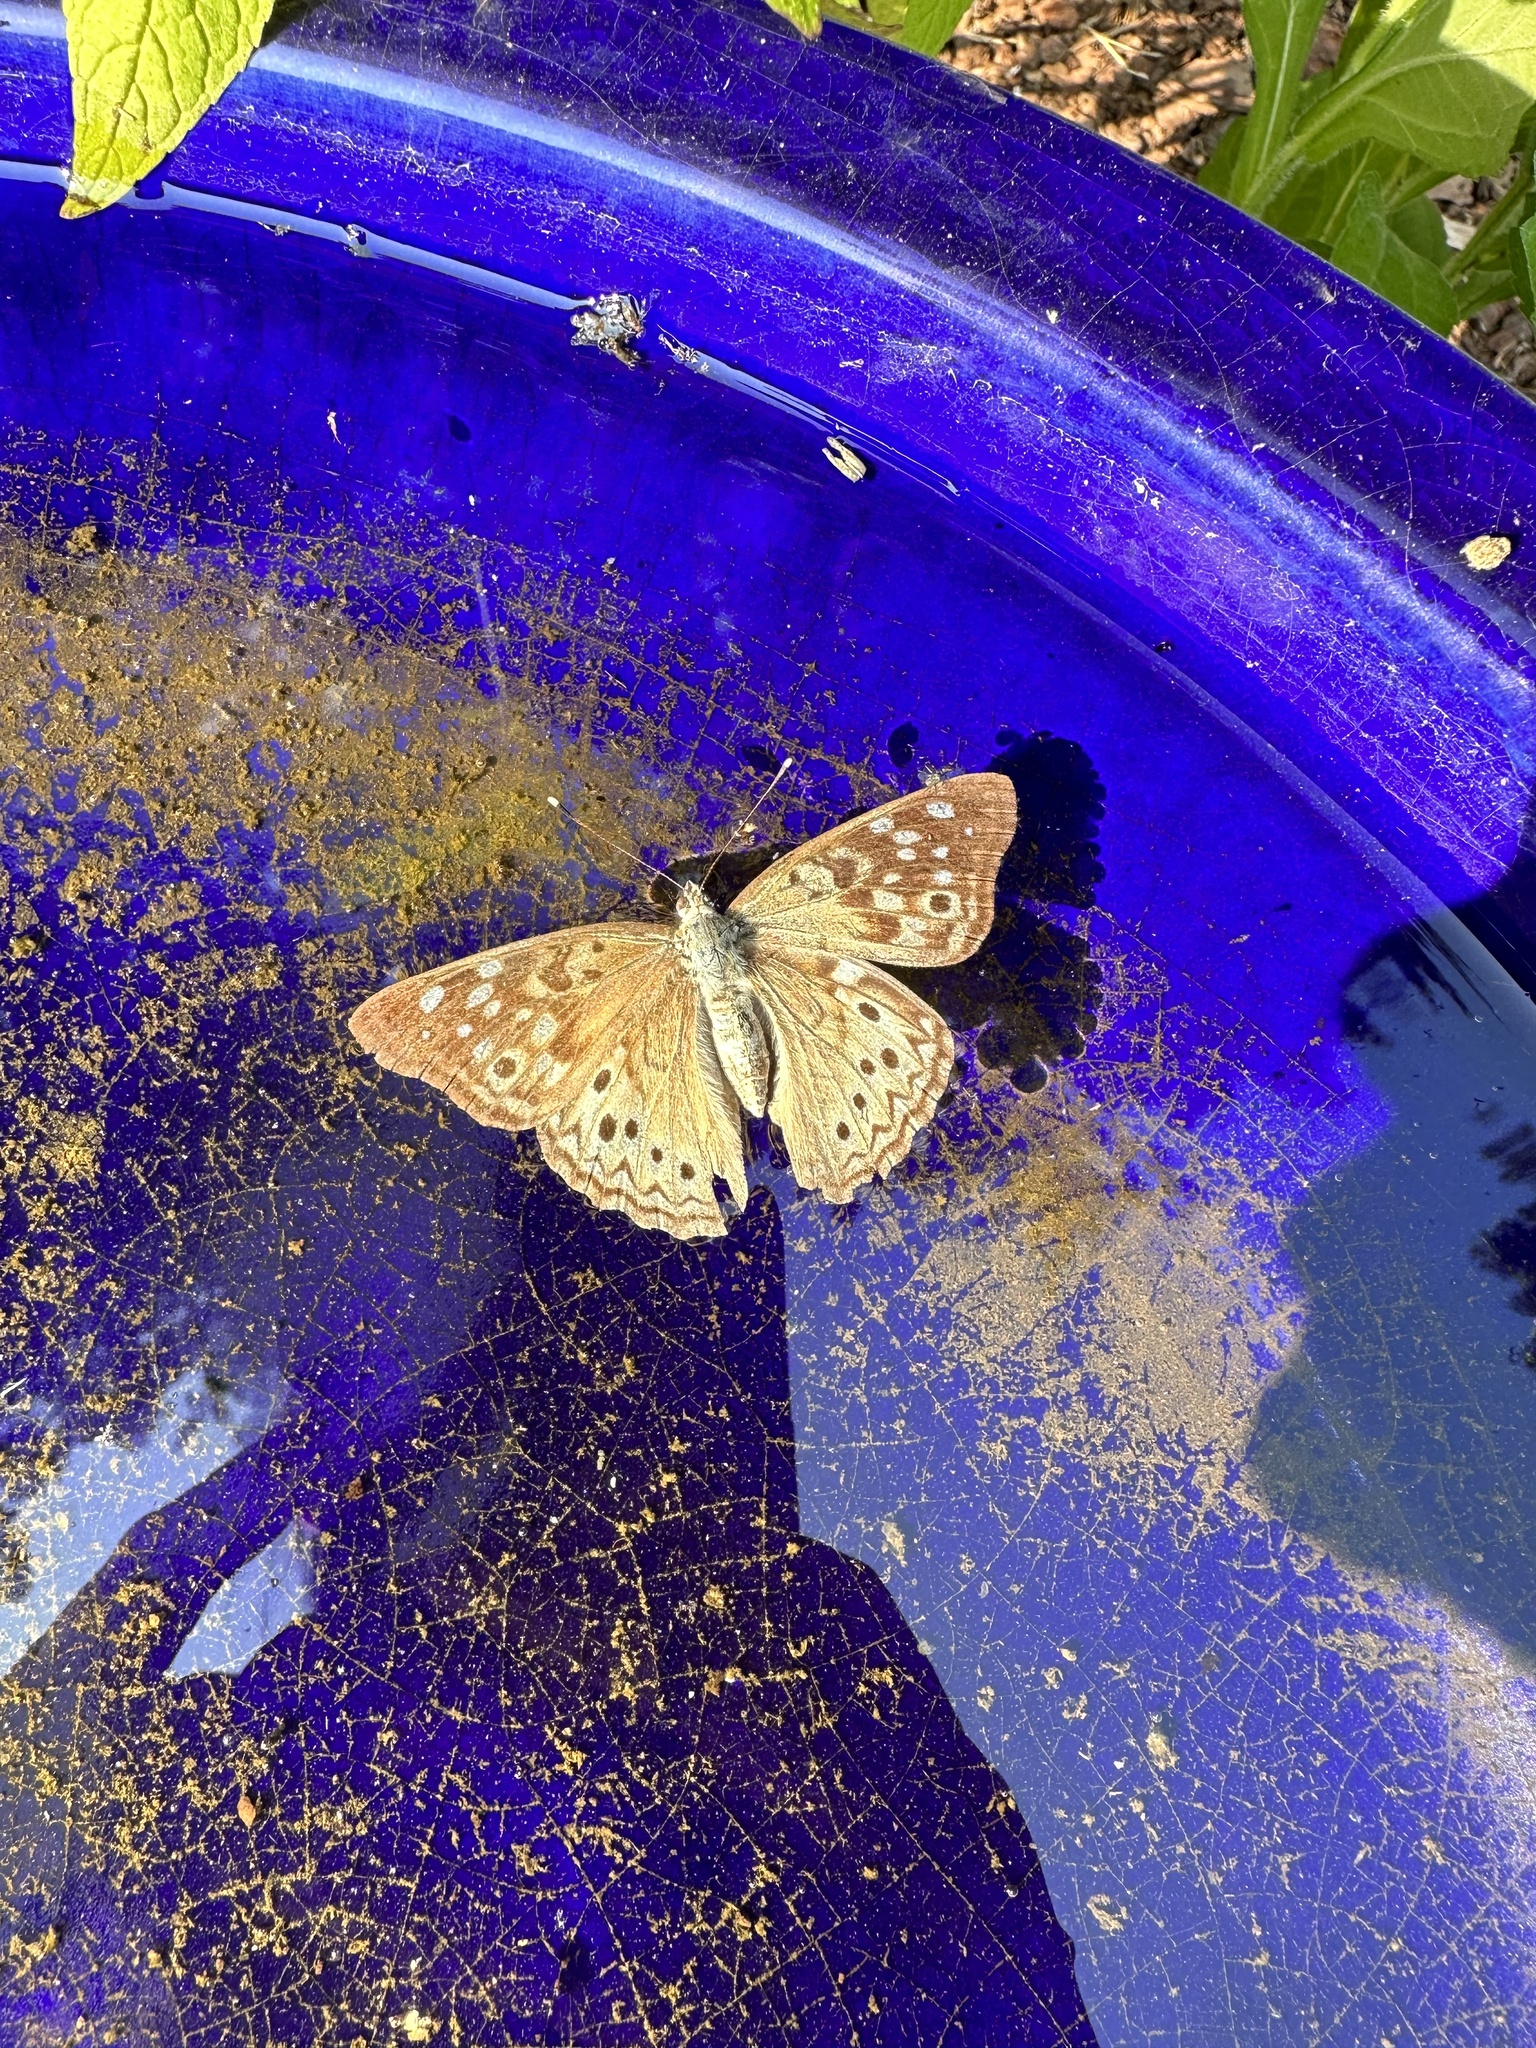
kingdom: Animalia
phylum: Arthropoda
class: Insecta
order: Lepidoptera
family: Nymphalidae
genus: Asterocampa
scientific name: Asterocampa celtis
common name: Hackberry emperor
